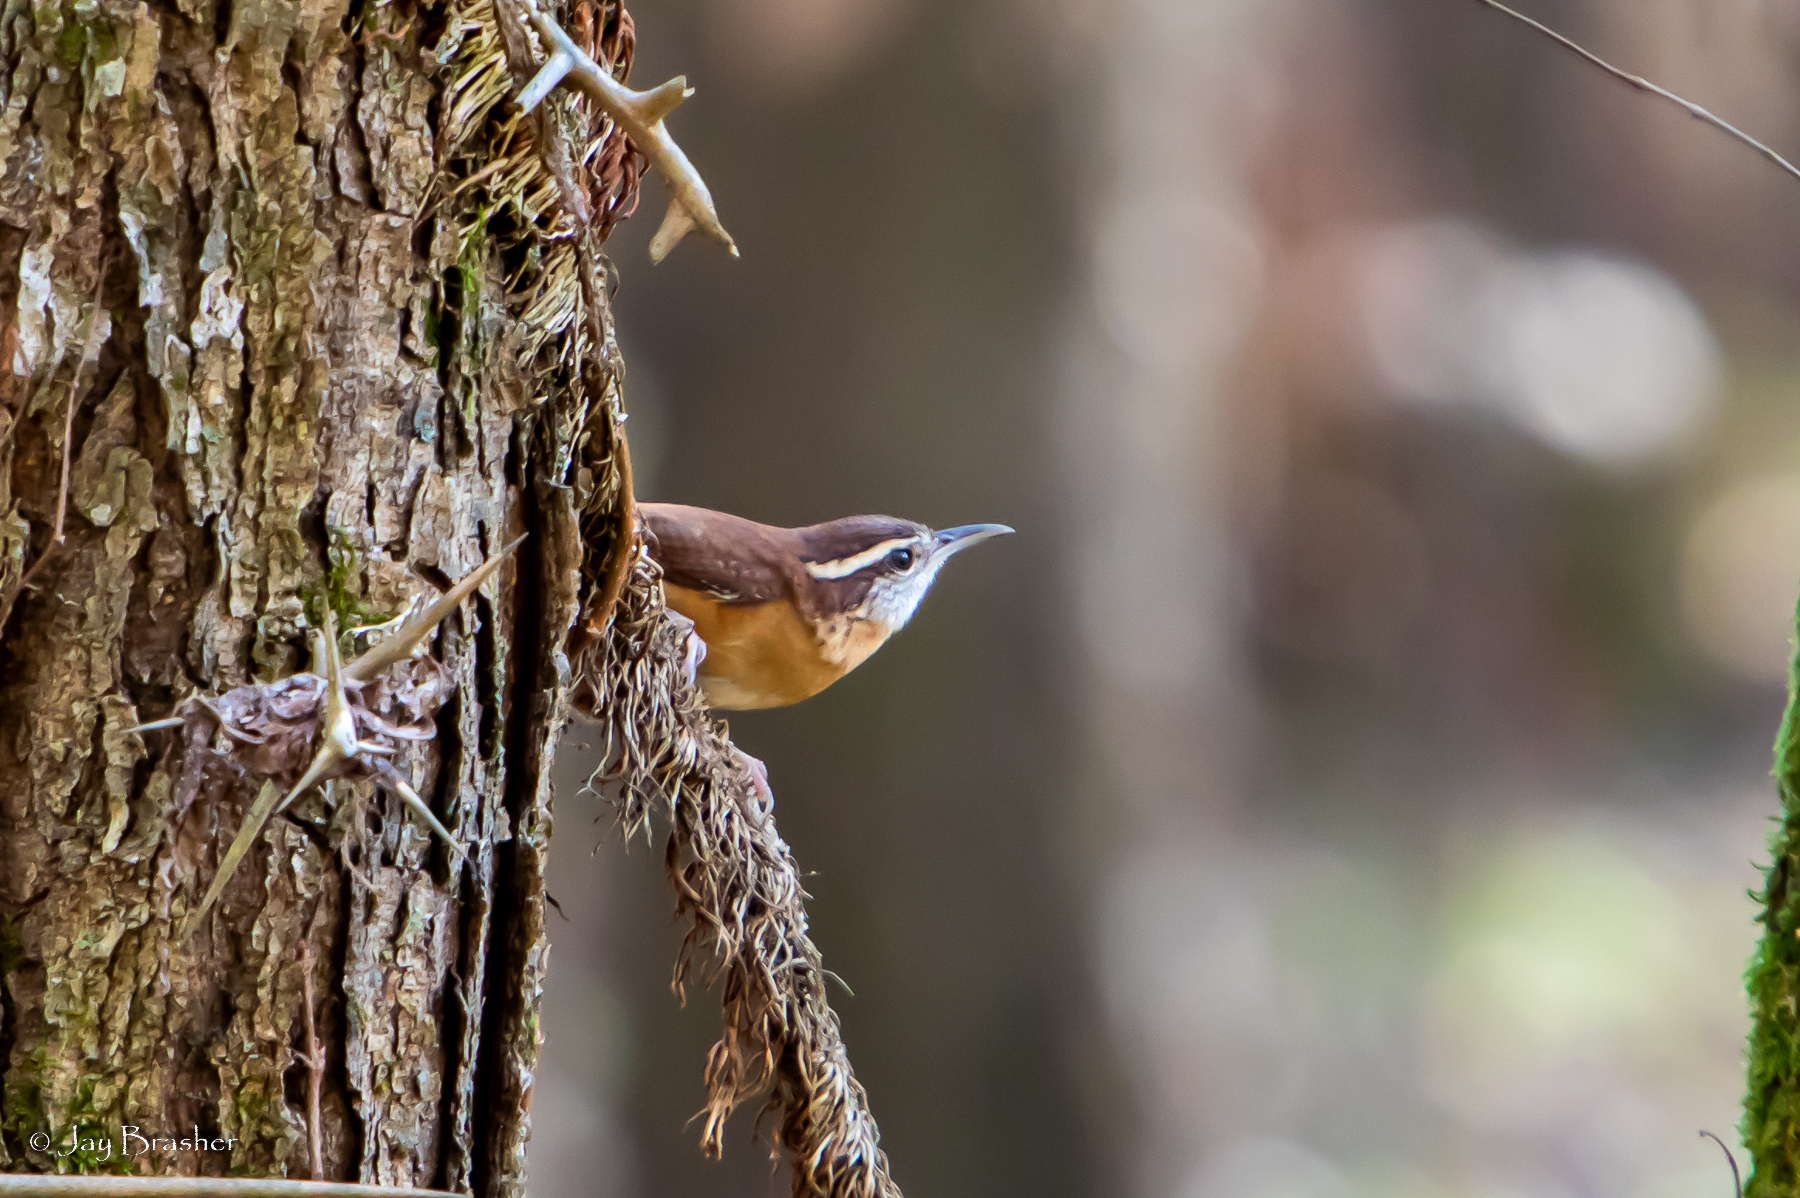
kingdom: Animalia
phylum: Chordata
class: Aves
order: Passeriformes
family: Troglodytidae
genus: Thryothorus
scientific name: Thryothorus ludovicianus
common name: Carolina wren
